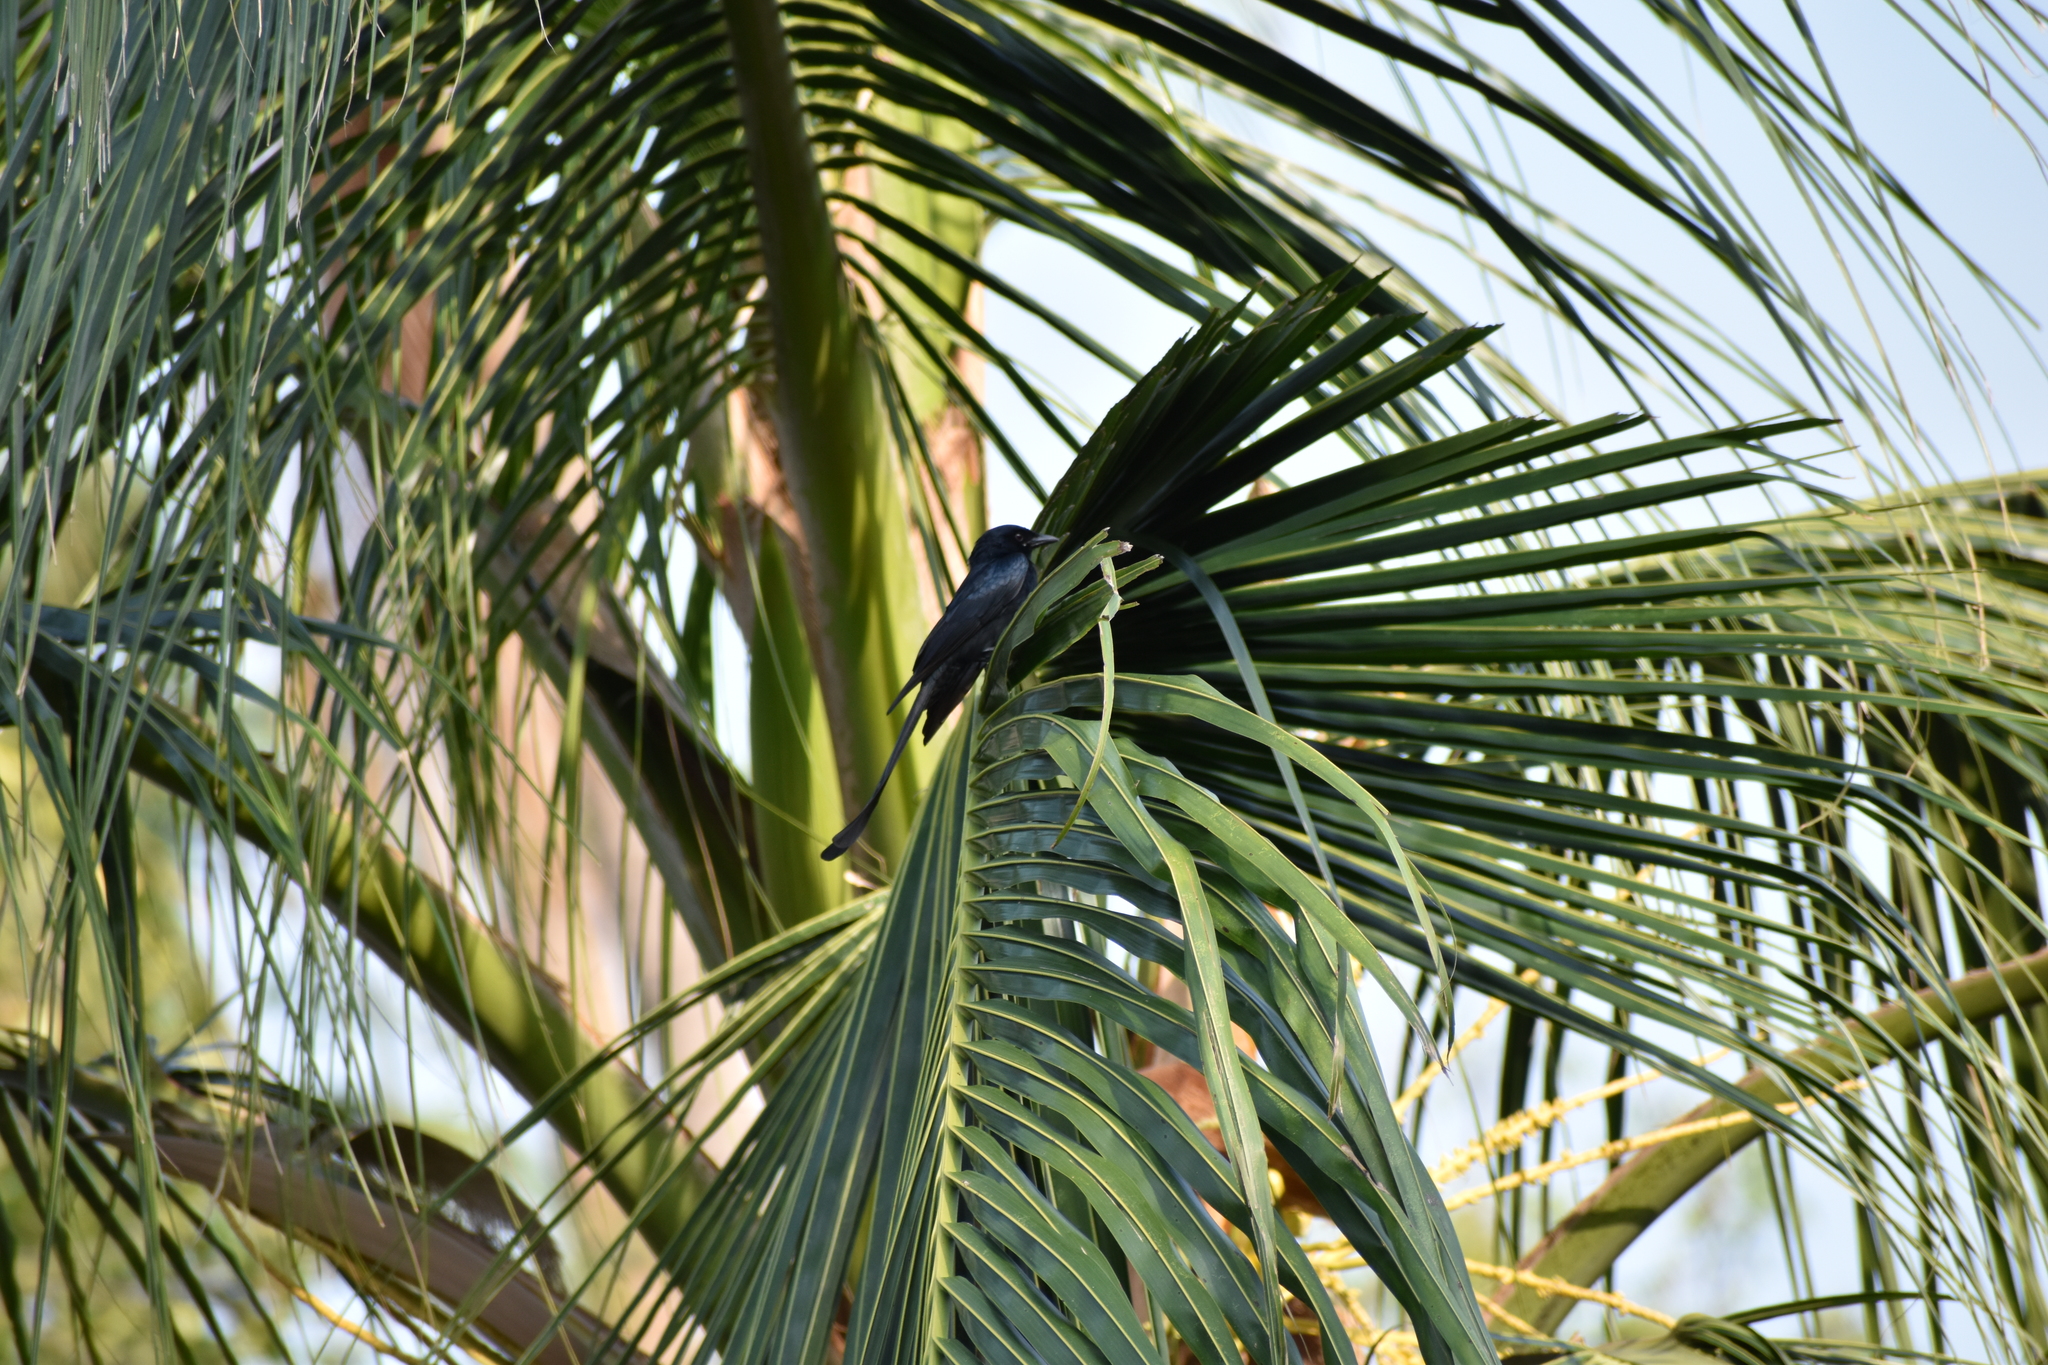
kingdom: Animalia
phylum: Chordata
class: Aves
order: Passeriformes
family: Dicruridae
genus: Dicrurus
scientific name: Dicrurus macrocercus
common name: Black drongo
